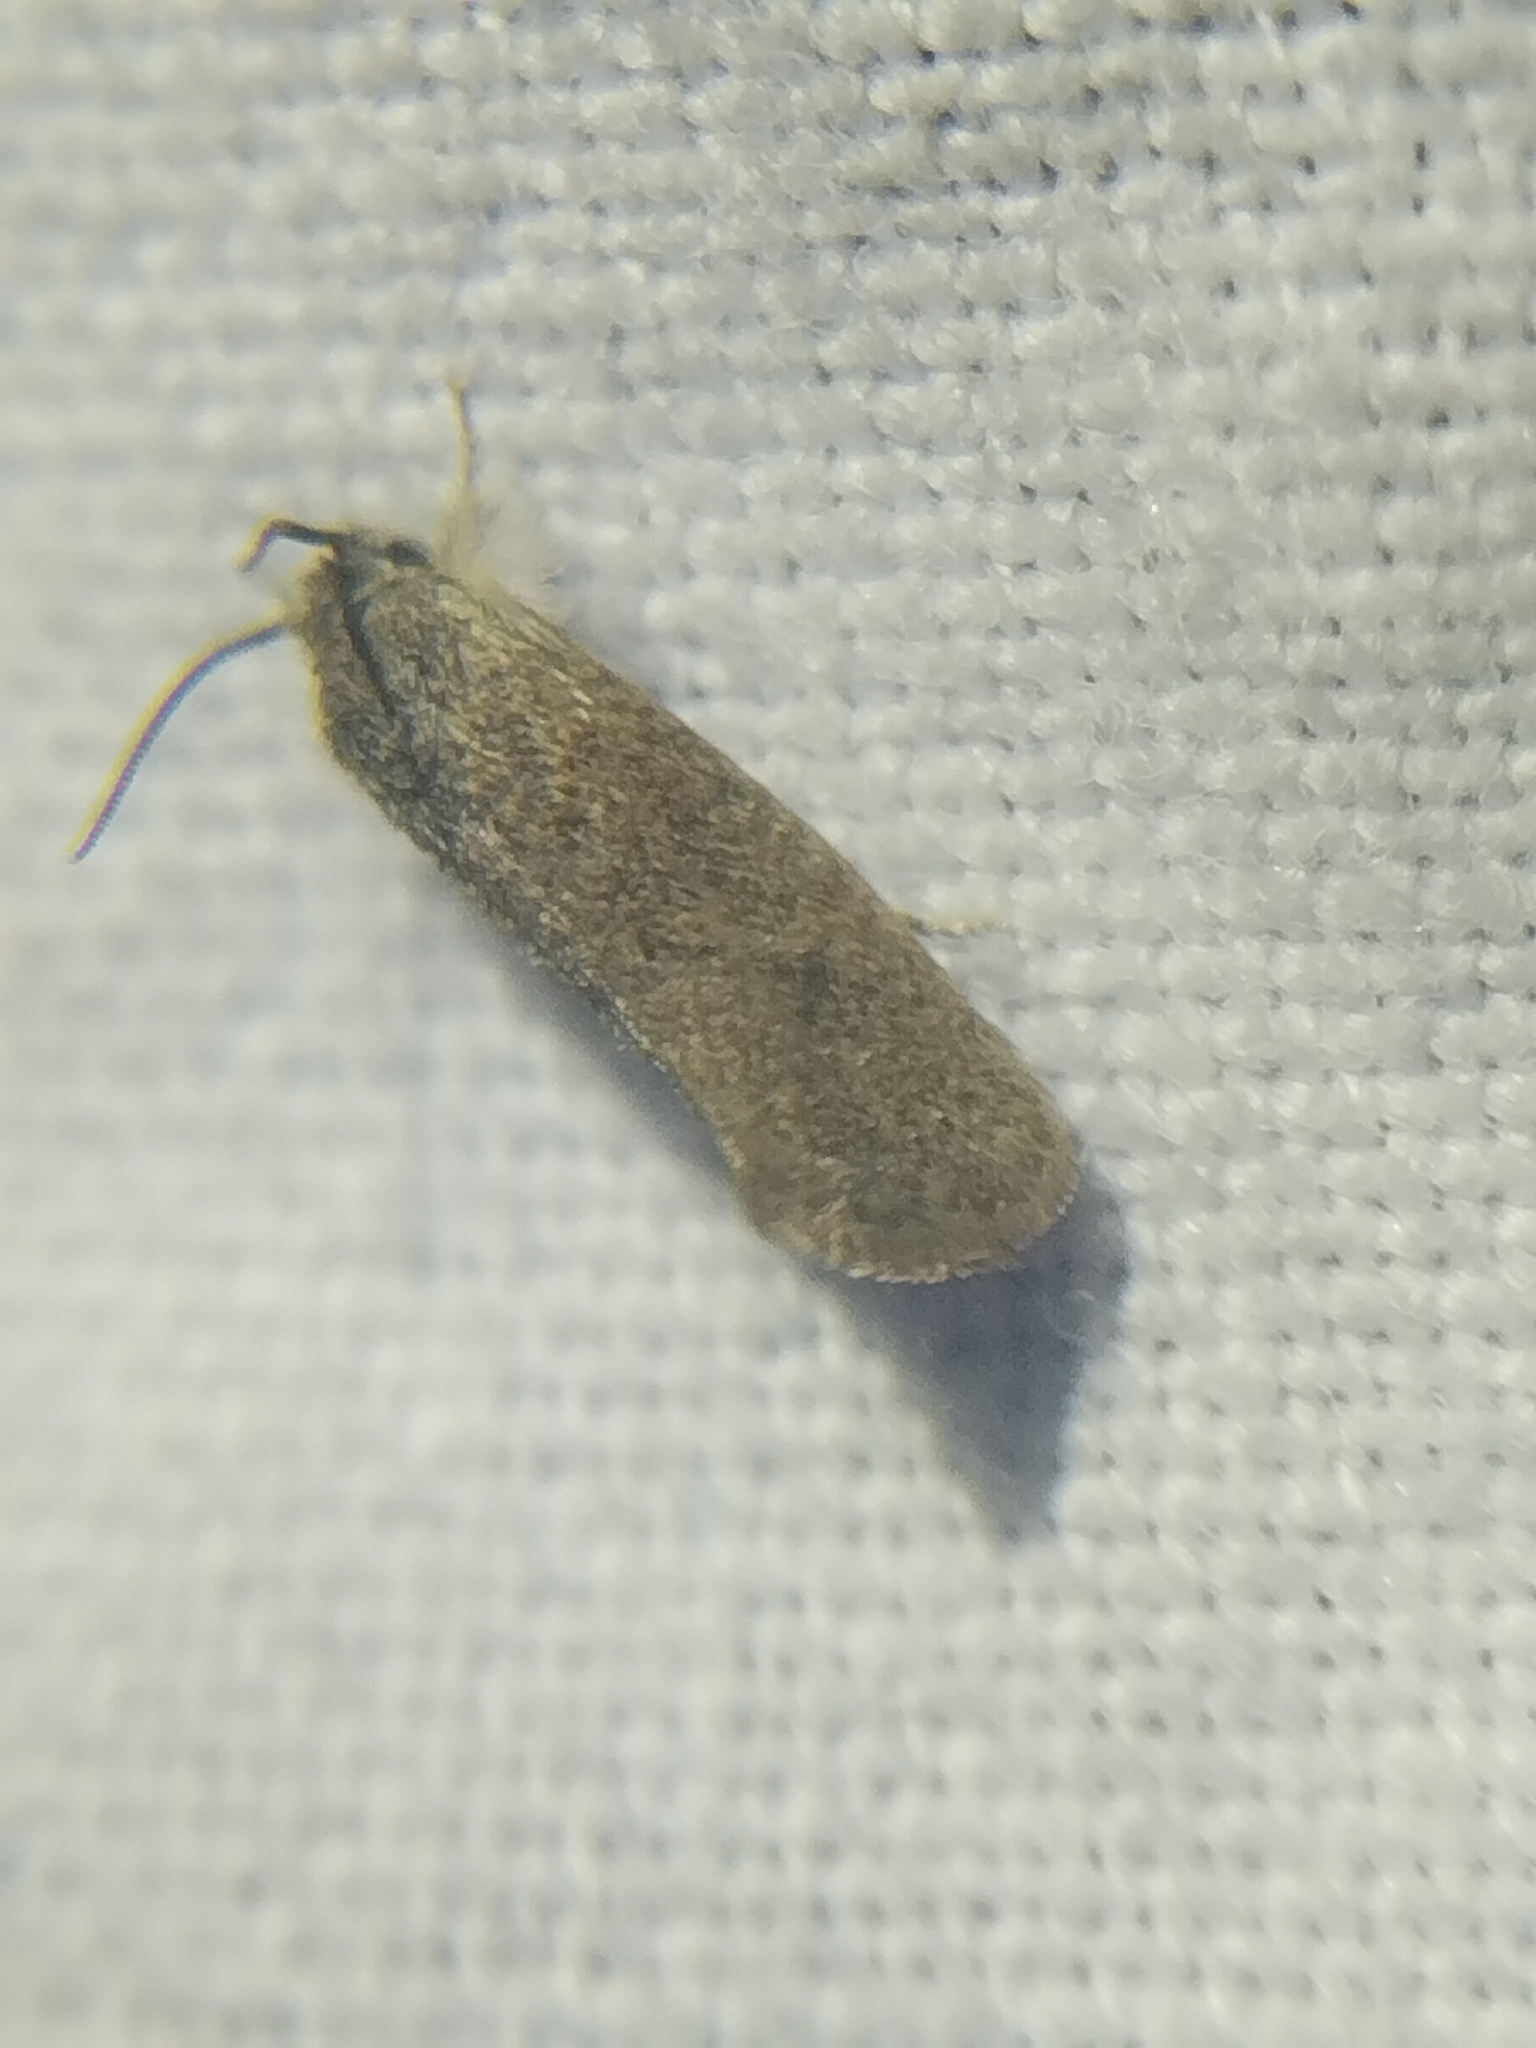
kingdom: Animalia
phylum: Arthropoda
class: Insecta
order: Lepidoptera
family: Tineidae
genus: Acrolophus
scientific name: Acrolophus heppneri
